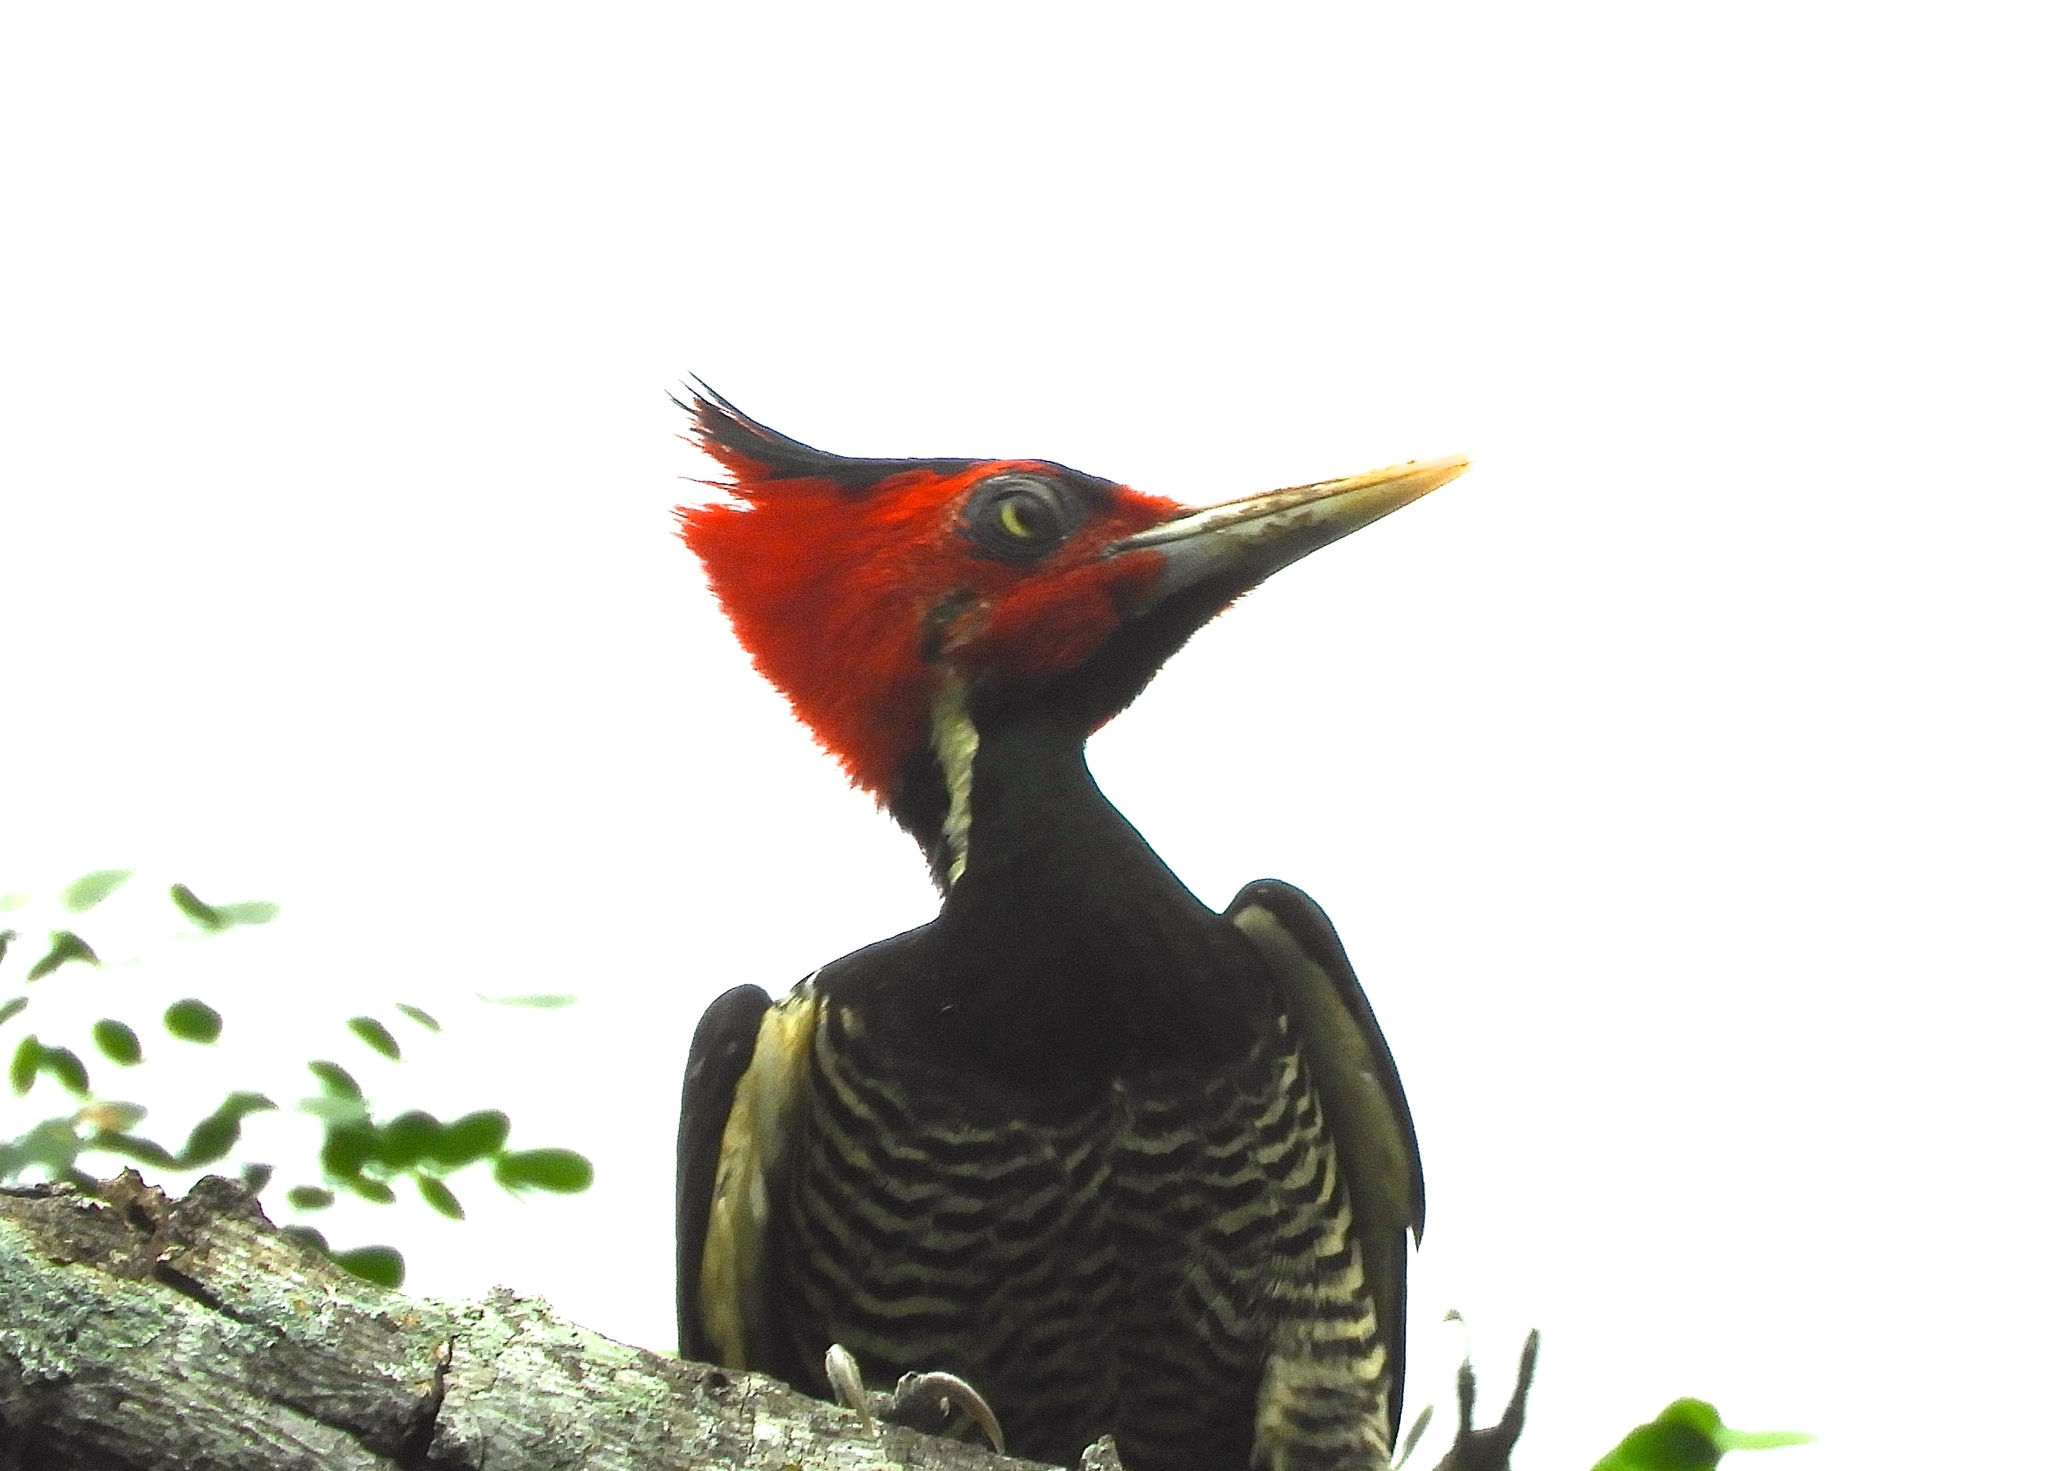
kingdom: Animalia
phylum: Chordata
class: Aves
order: Piciformes
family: Picidae
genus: Campephilus
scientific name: Campephilus guatemalensis
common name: Pale-billed woodpecker
